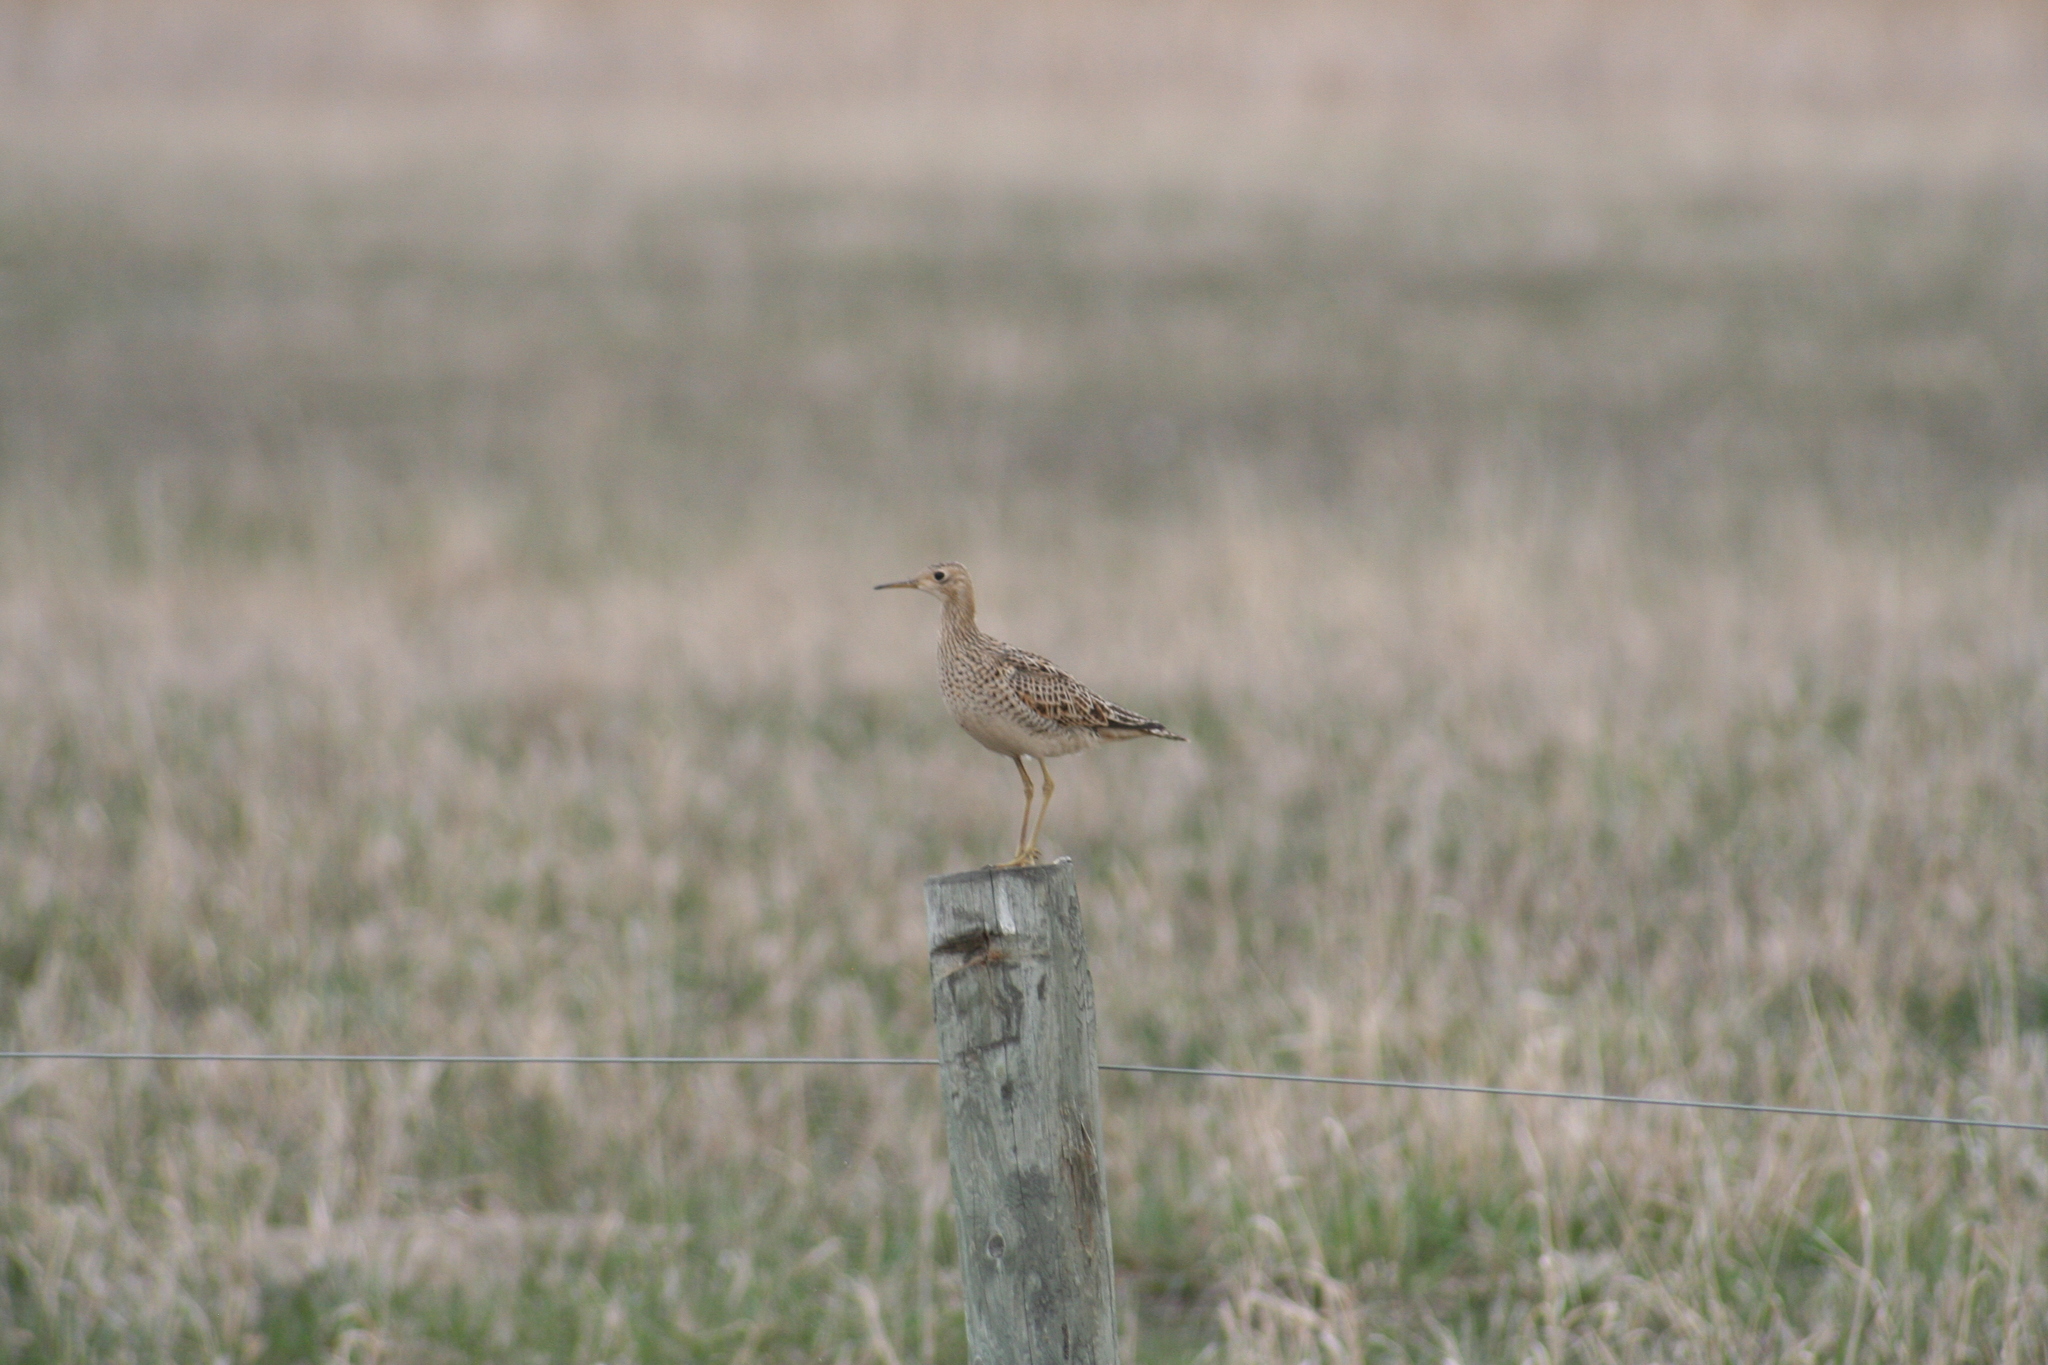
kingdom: Animalia
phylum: Chordata
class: Aves
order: Charadriiformes
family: Scolopacidae
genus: Bartramia
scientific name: Bartramia longicauda
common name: Upland sandpiper
